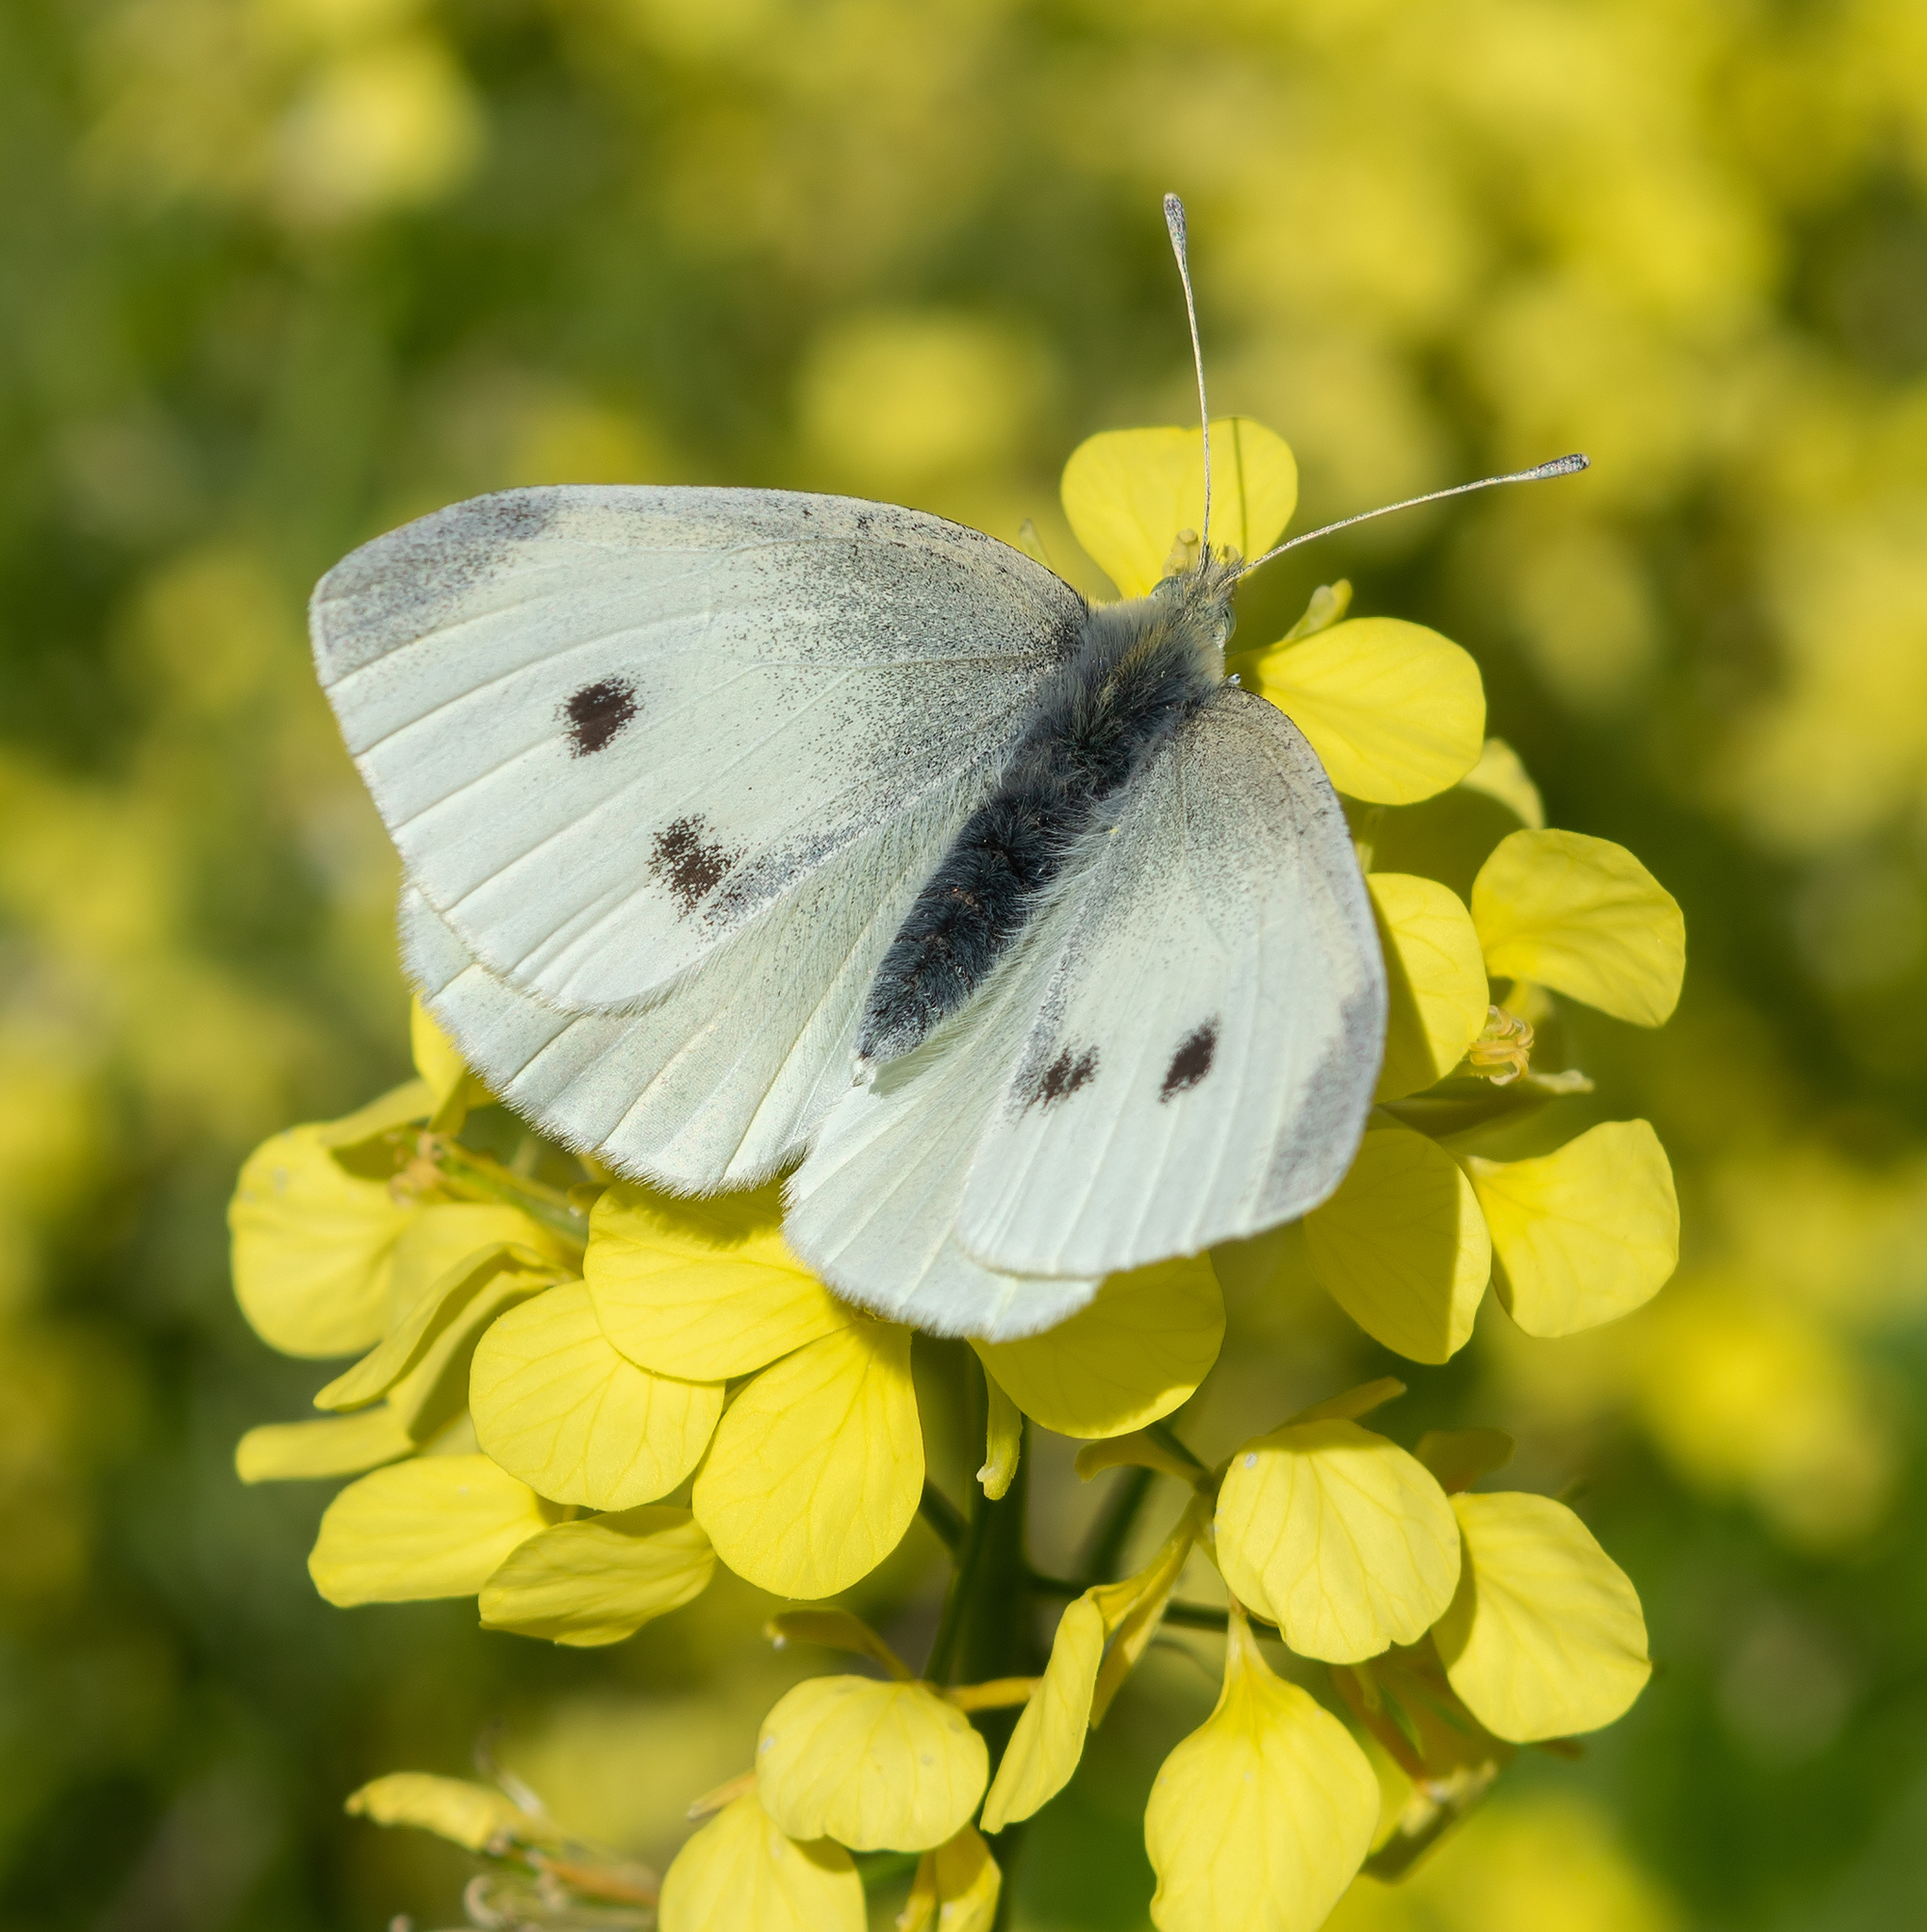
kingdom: Animalia
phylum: Arthropoda
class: Insecta
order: Lepidoptera
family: Pieridae
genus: Pieris
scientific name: Pieris rapae
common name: Small white
